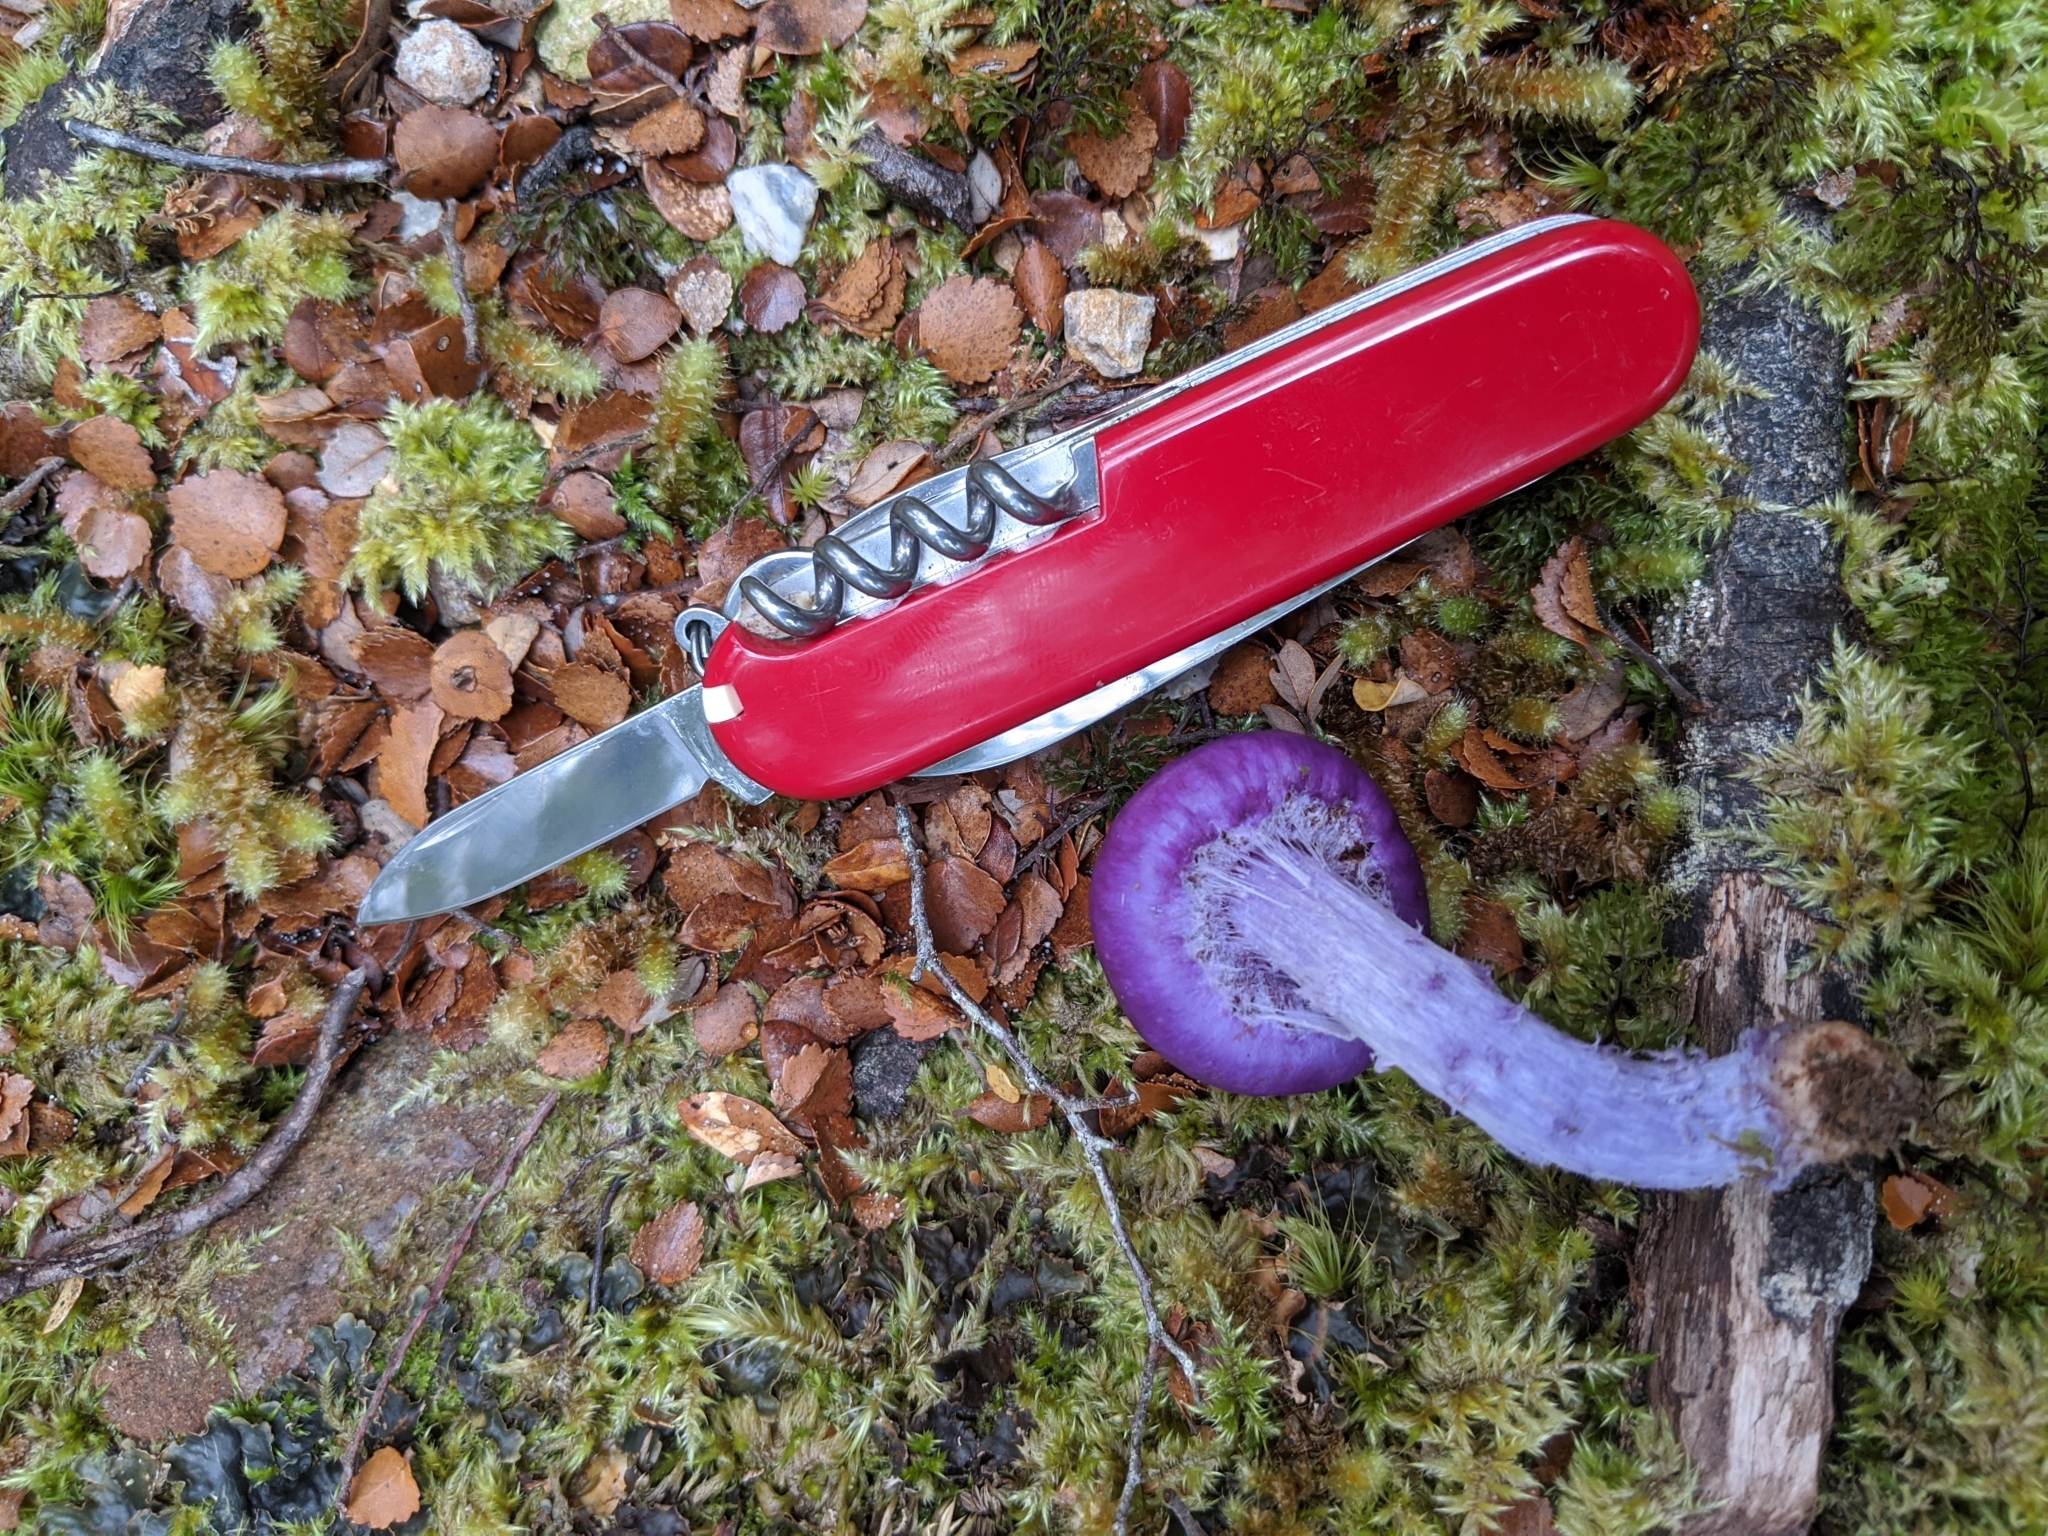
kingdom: Fungi
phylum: Basidiomycota
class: Agaricomycetes
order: Agaricales
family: Cortinariaceae
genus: Cortinarius
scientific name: Cortinarius
